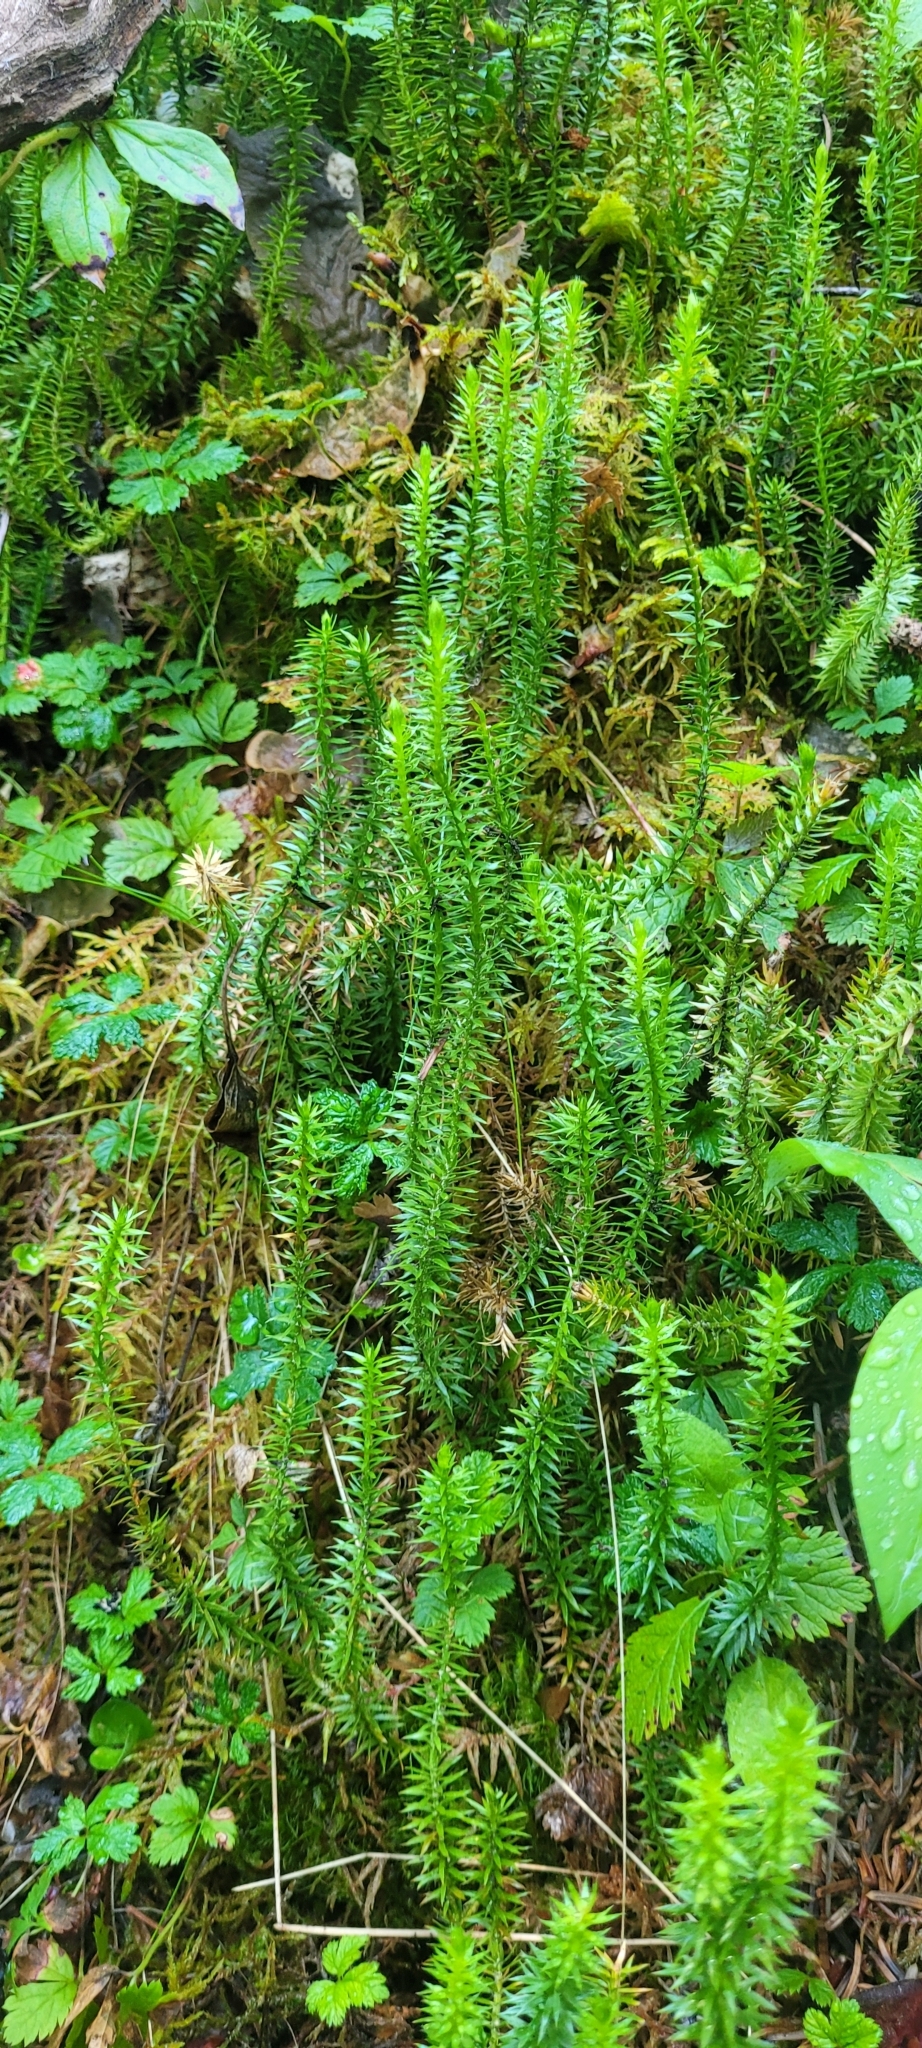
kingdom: Plantae
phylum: Tracheophyta
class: Lycopodiopsida
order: Lycopodiales
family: Lycopodiaceae
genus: Spinulum
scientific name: Spinulum annotinum
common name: Interrupted club-moss
